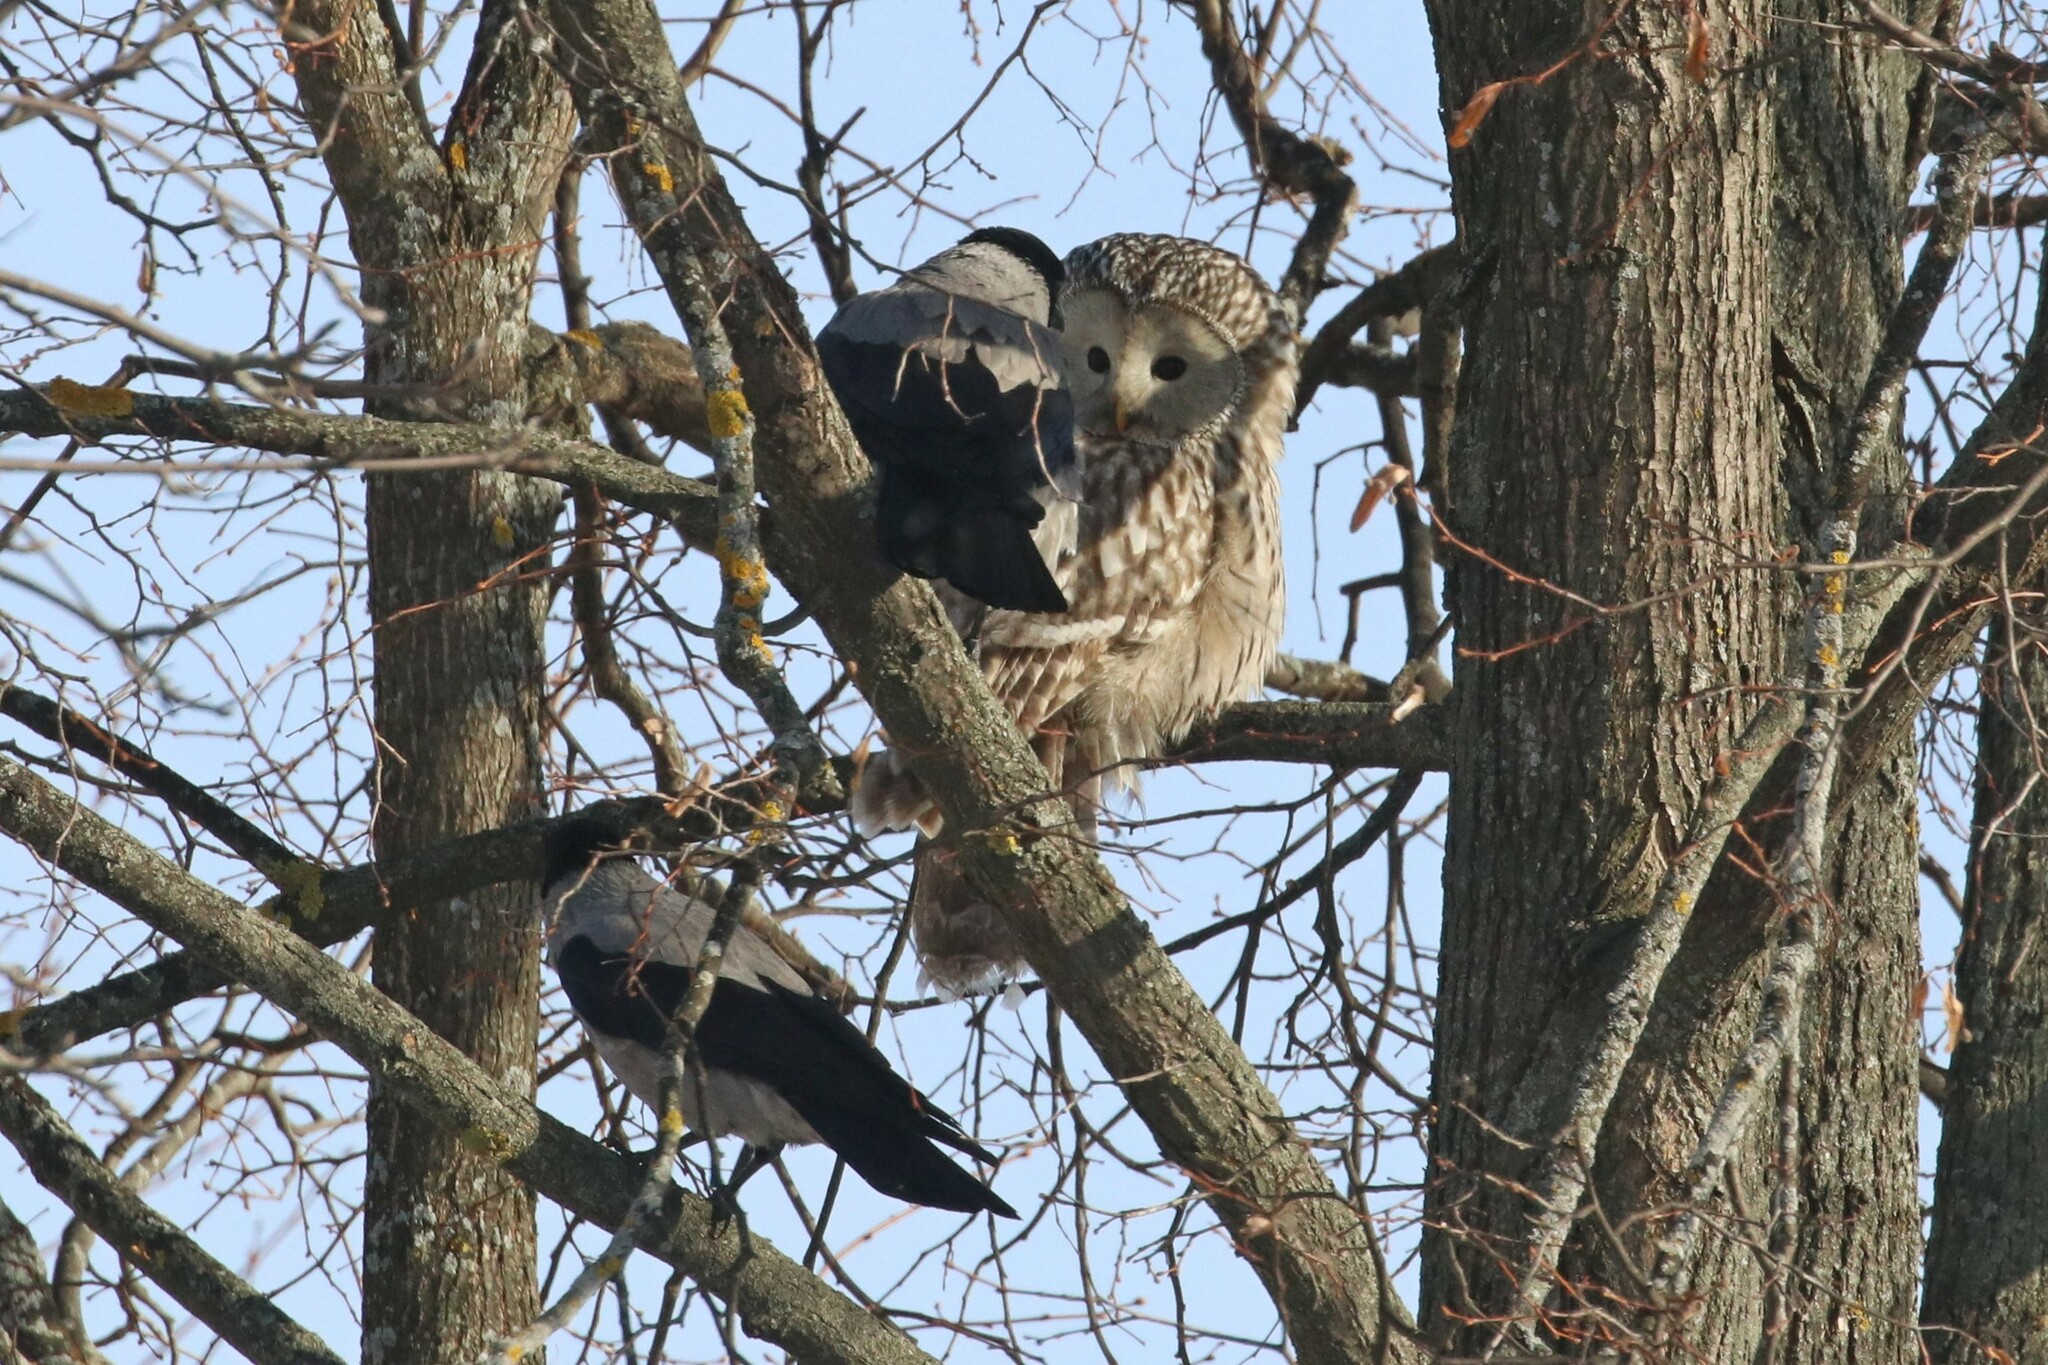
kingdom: Animalia
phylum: Chordata
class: Aves
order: Passeriformes
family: Corvidae
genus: Corvus
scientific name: Corvus cornix
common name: Hooded crow
